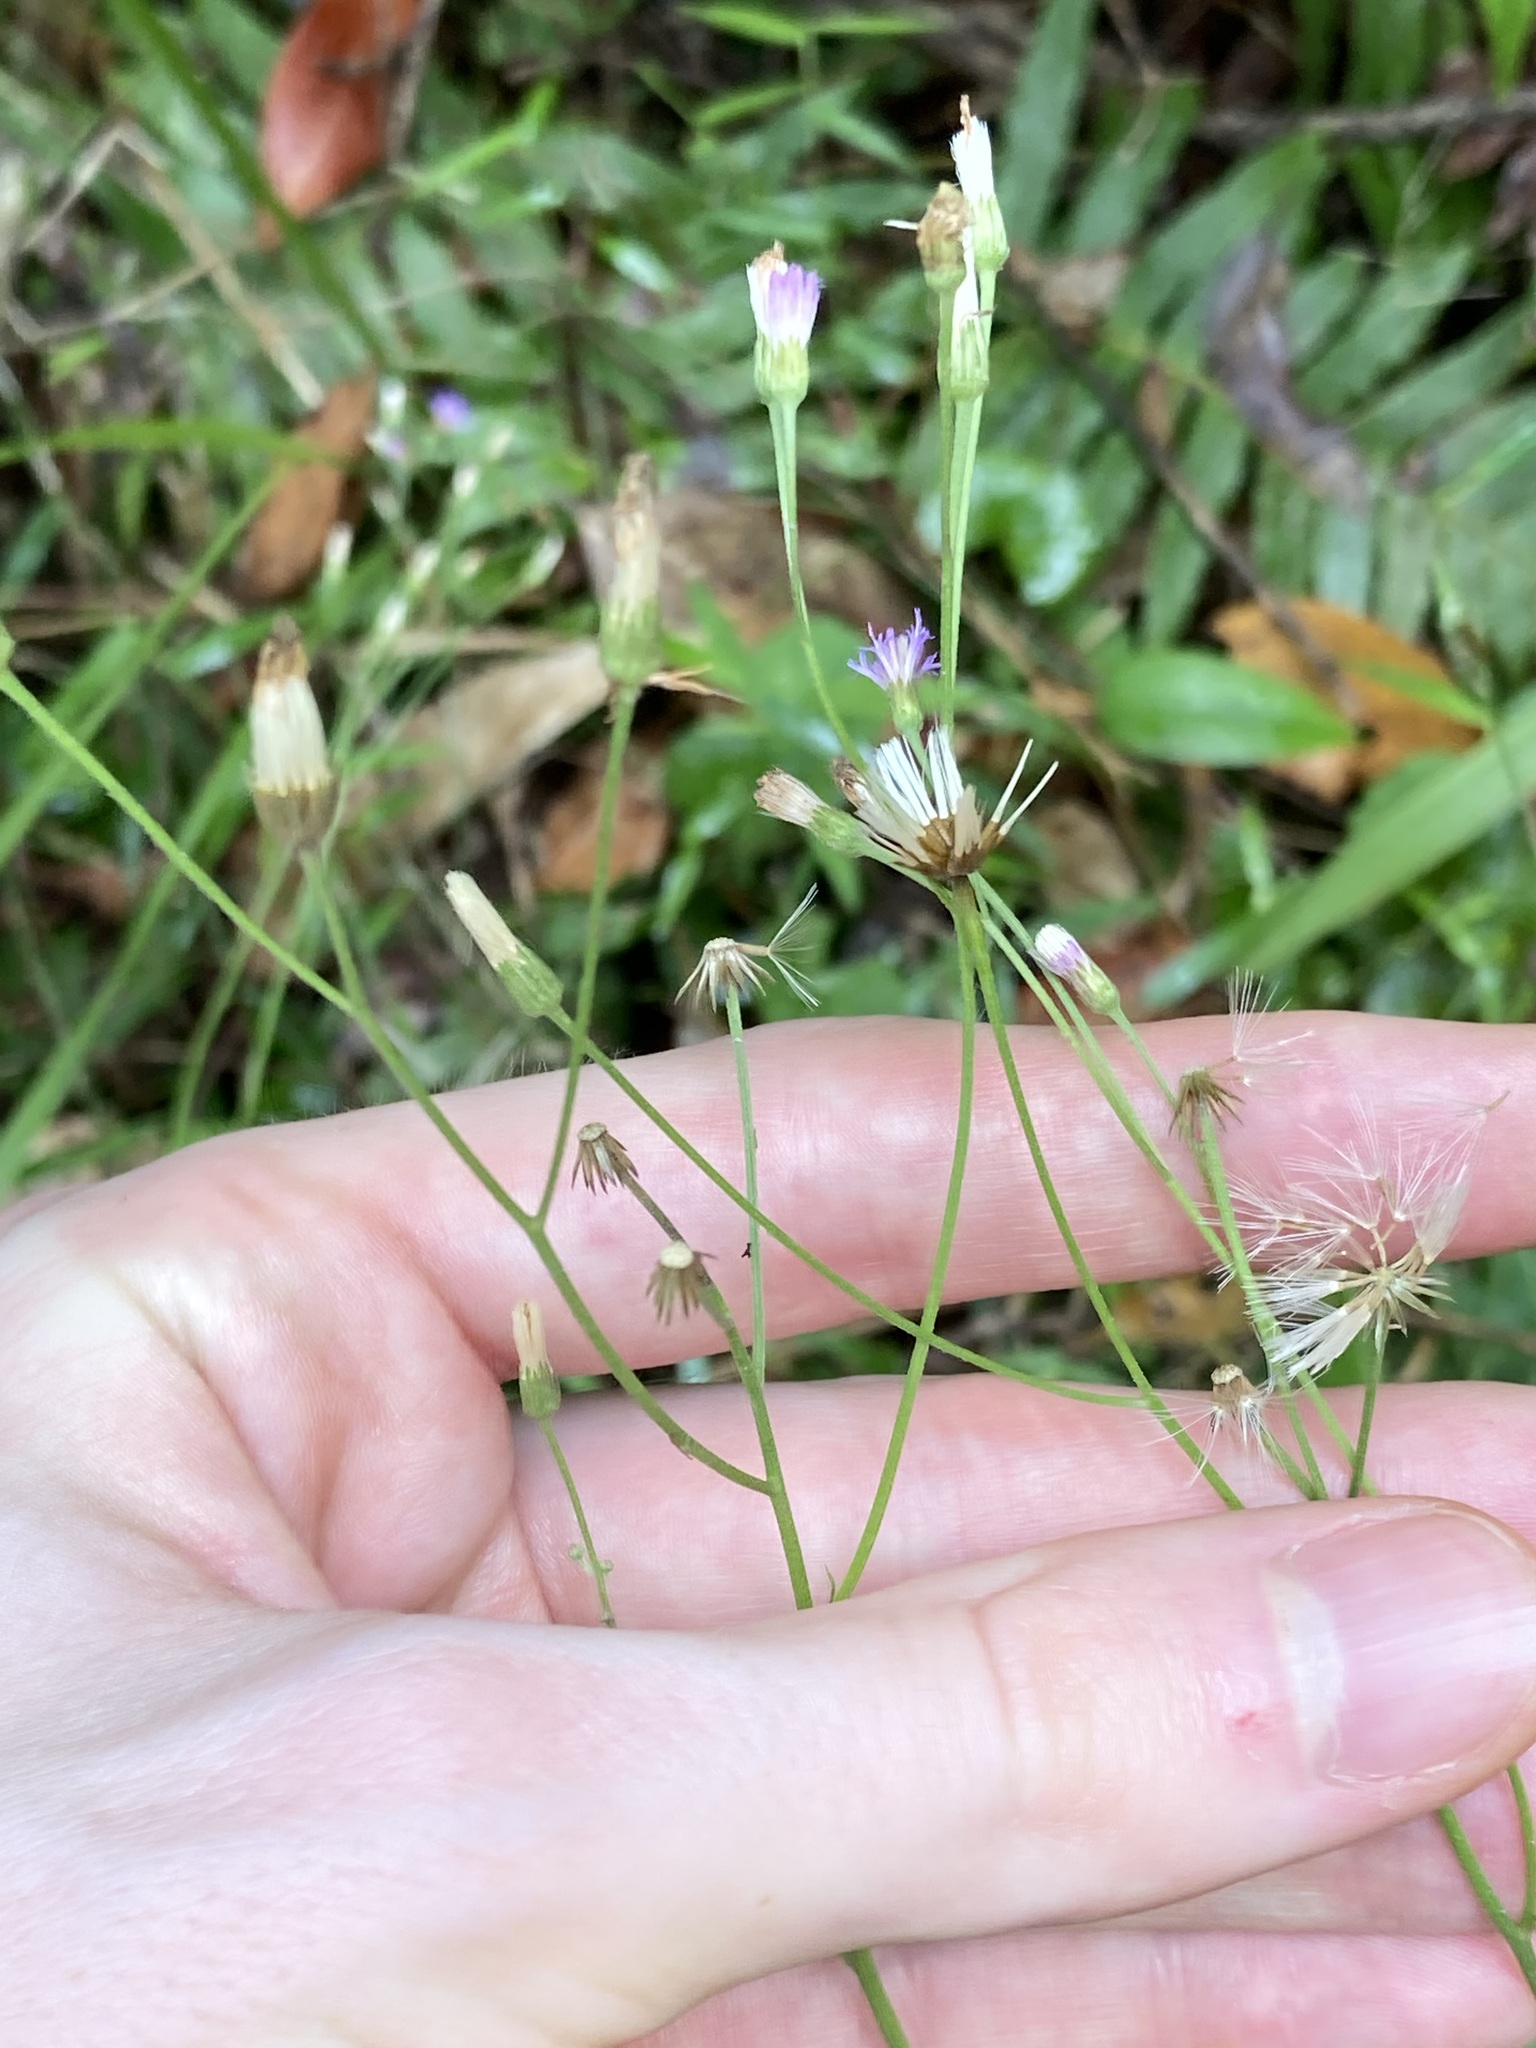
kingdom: Plantae
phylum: Tracheophyta
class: Magnoliopsida
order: Asterales
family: Asteraceae
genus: Cyanthillium
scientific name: Cyanthillium cinereum
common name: Little ironweed
